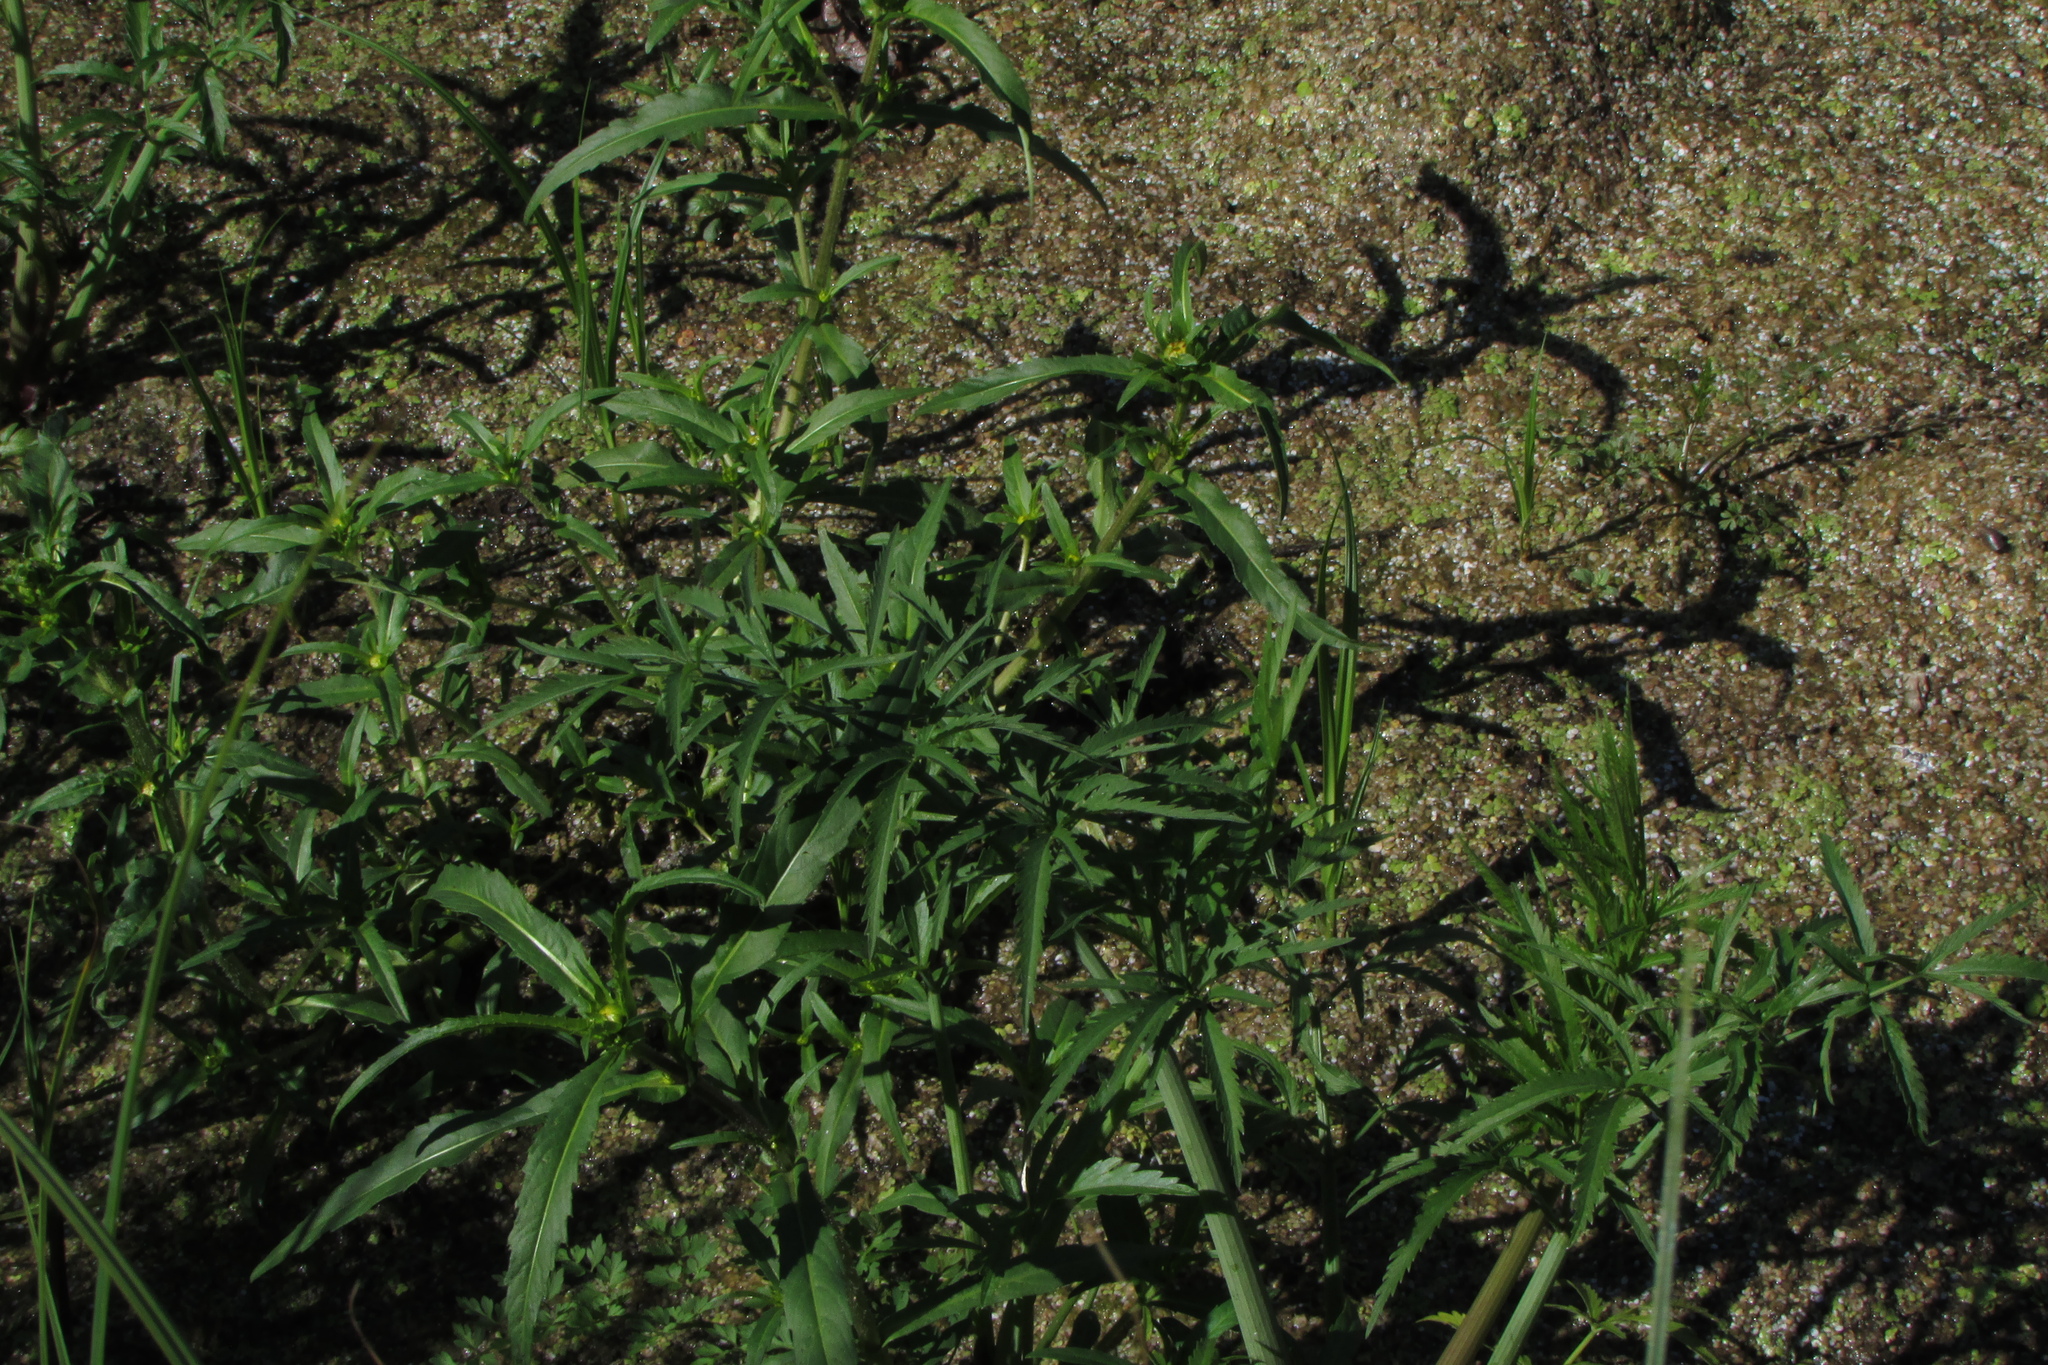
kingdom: Plantae
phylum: Tracheophyta
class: Magnoliopsida
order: Asterales
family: Asteraceae
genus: Bidens
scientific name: Bidens cernua
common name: Nodding bur-marigold
